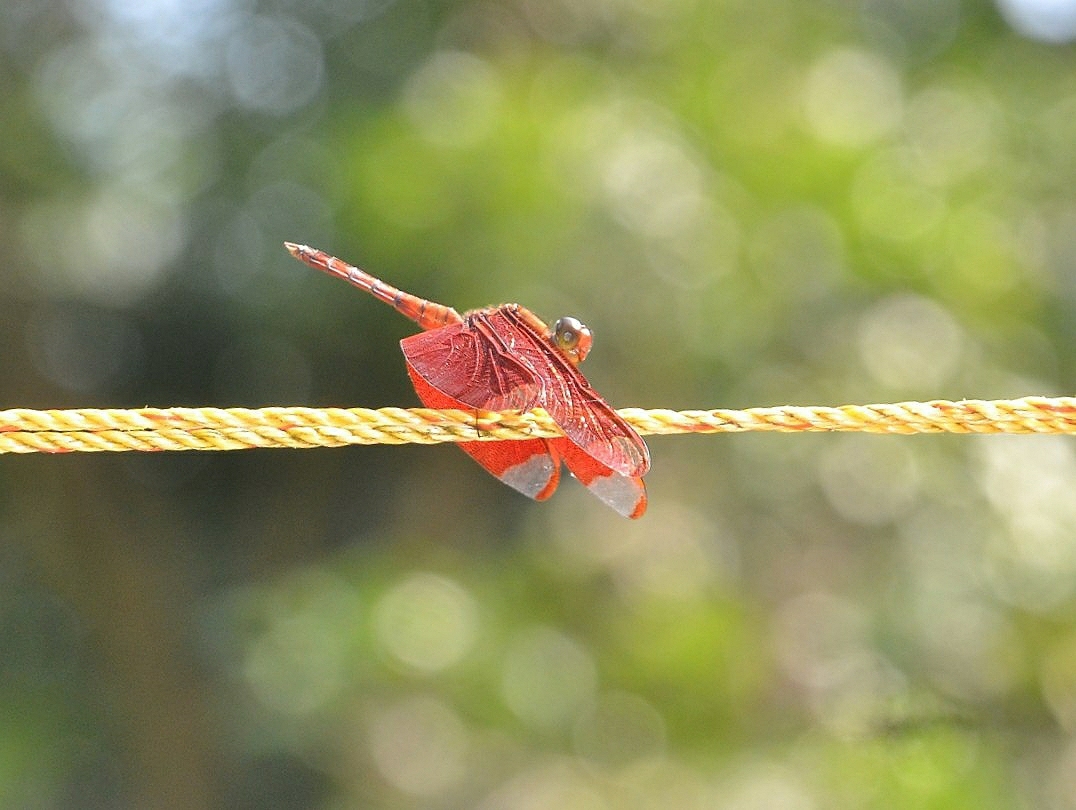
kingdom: Animalia
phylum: Arthropoda
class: Insecta
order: Odonata
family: Libellulidae
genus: Neurothemis
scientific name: Neurothemis fulvia
